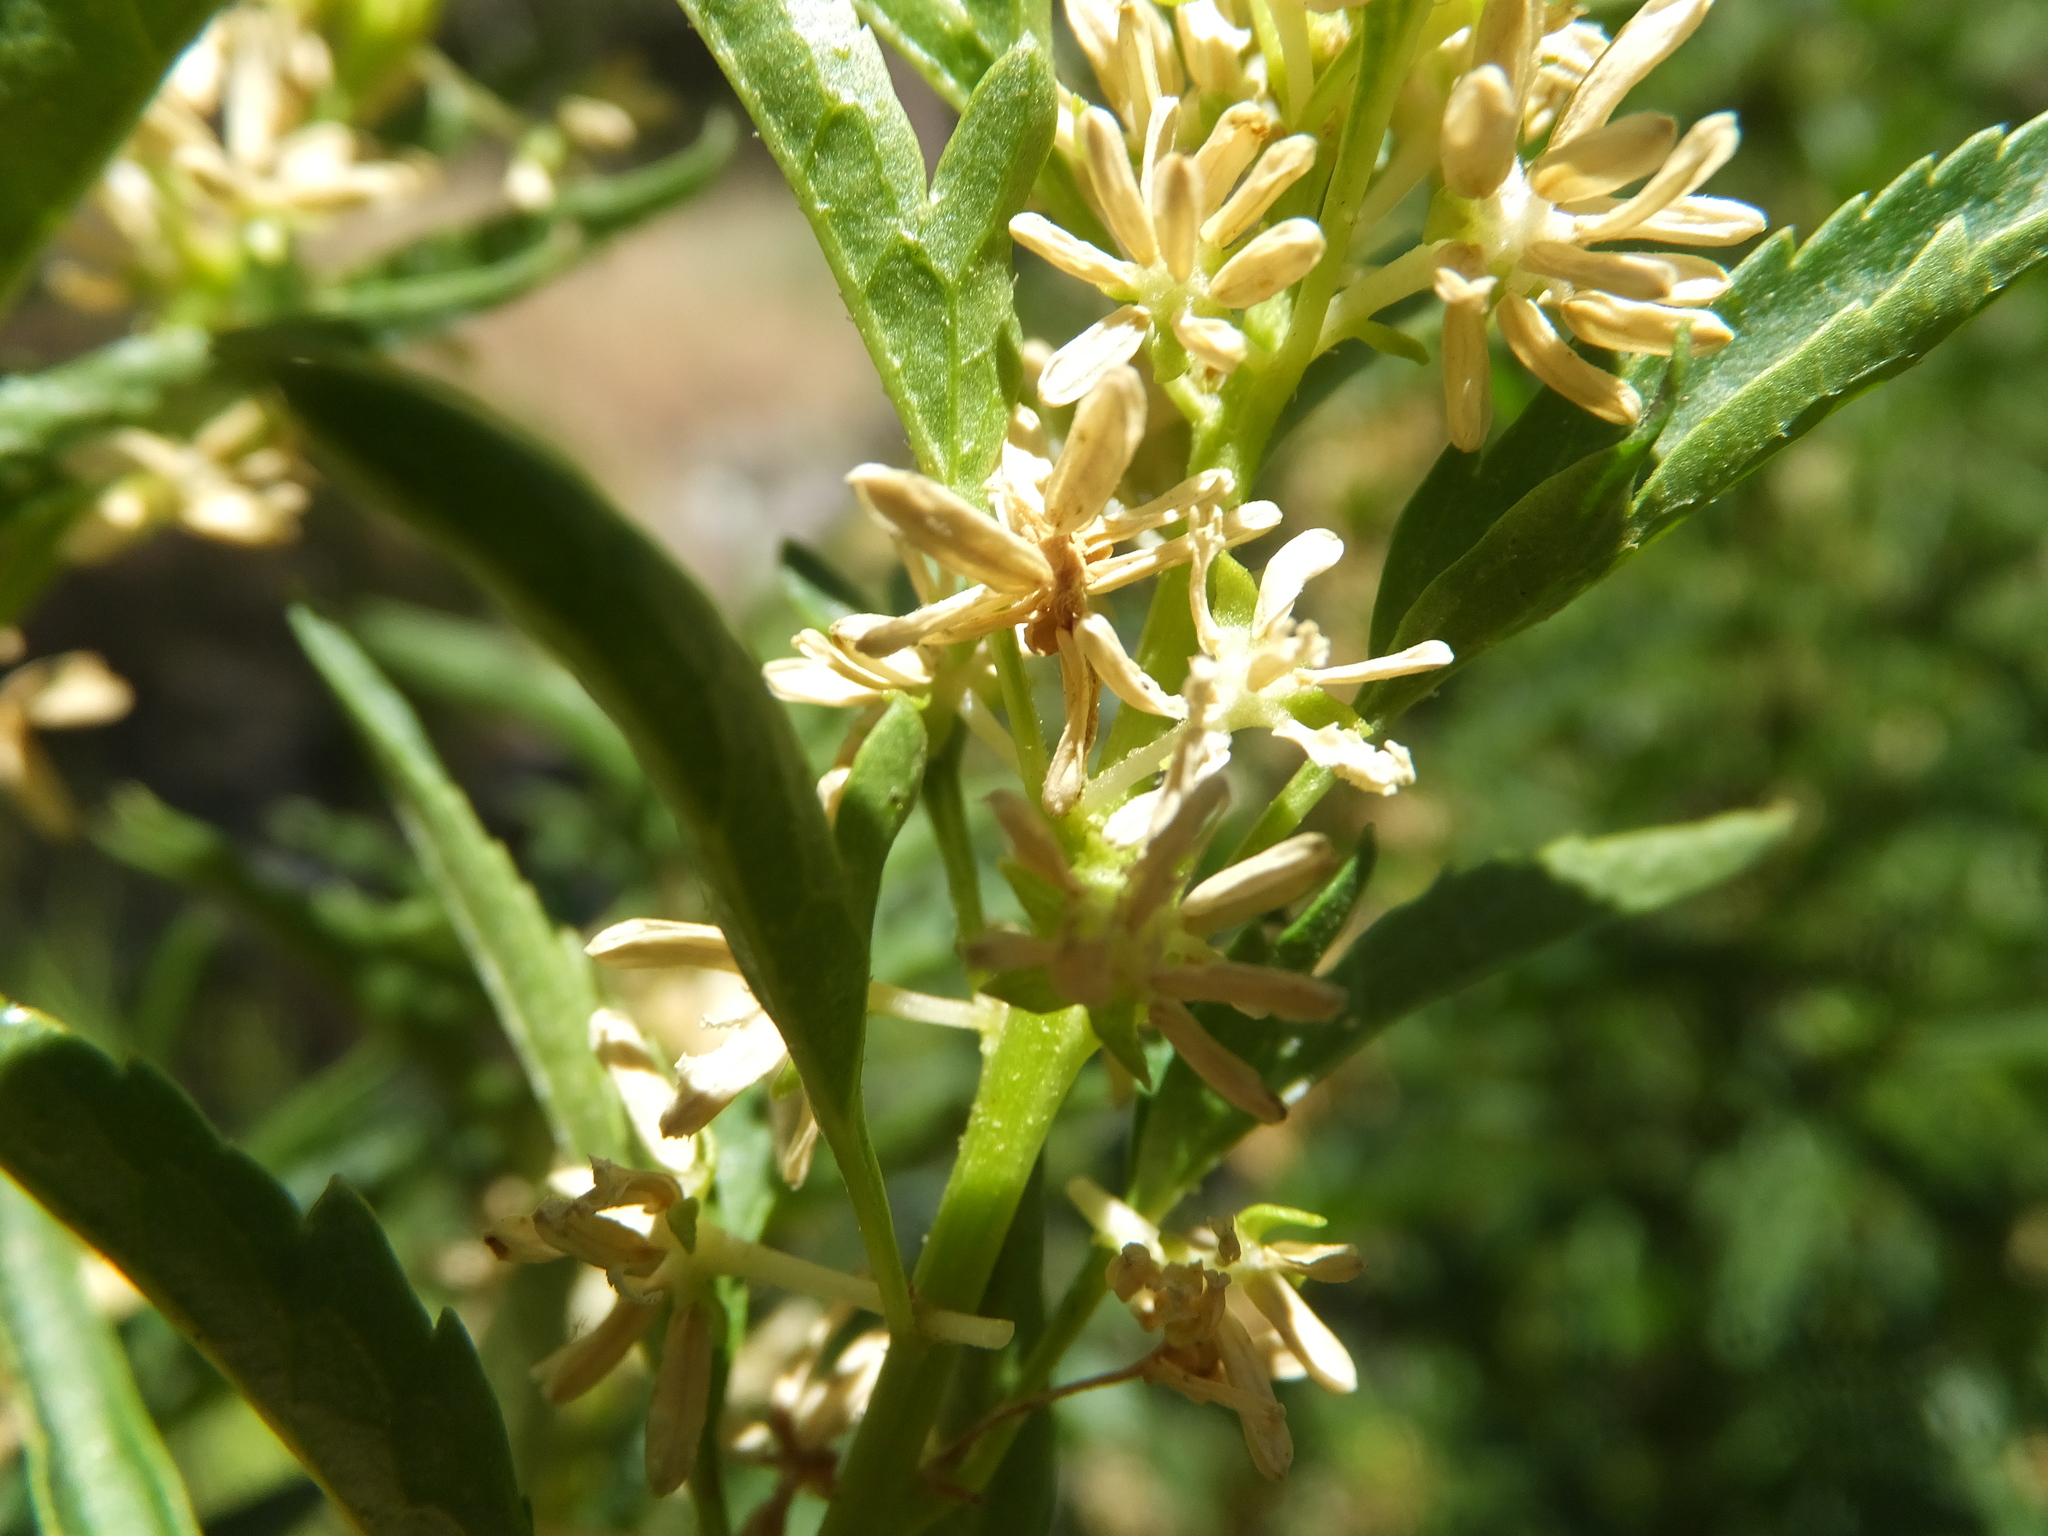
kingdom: Plantae
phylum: Tracheophyta
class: Magnoliopsida
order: Cucurbitales
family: Datiscaceae
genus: Datisca
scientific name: Datisca glomerata
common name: Durango-root
